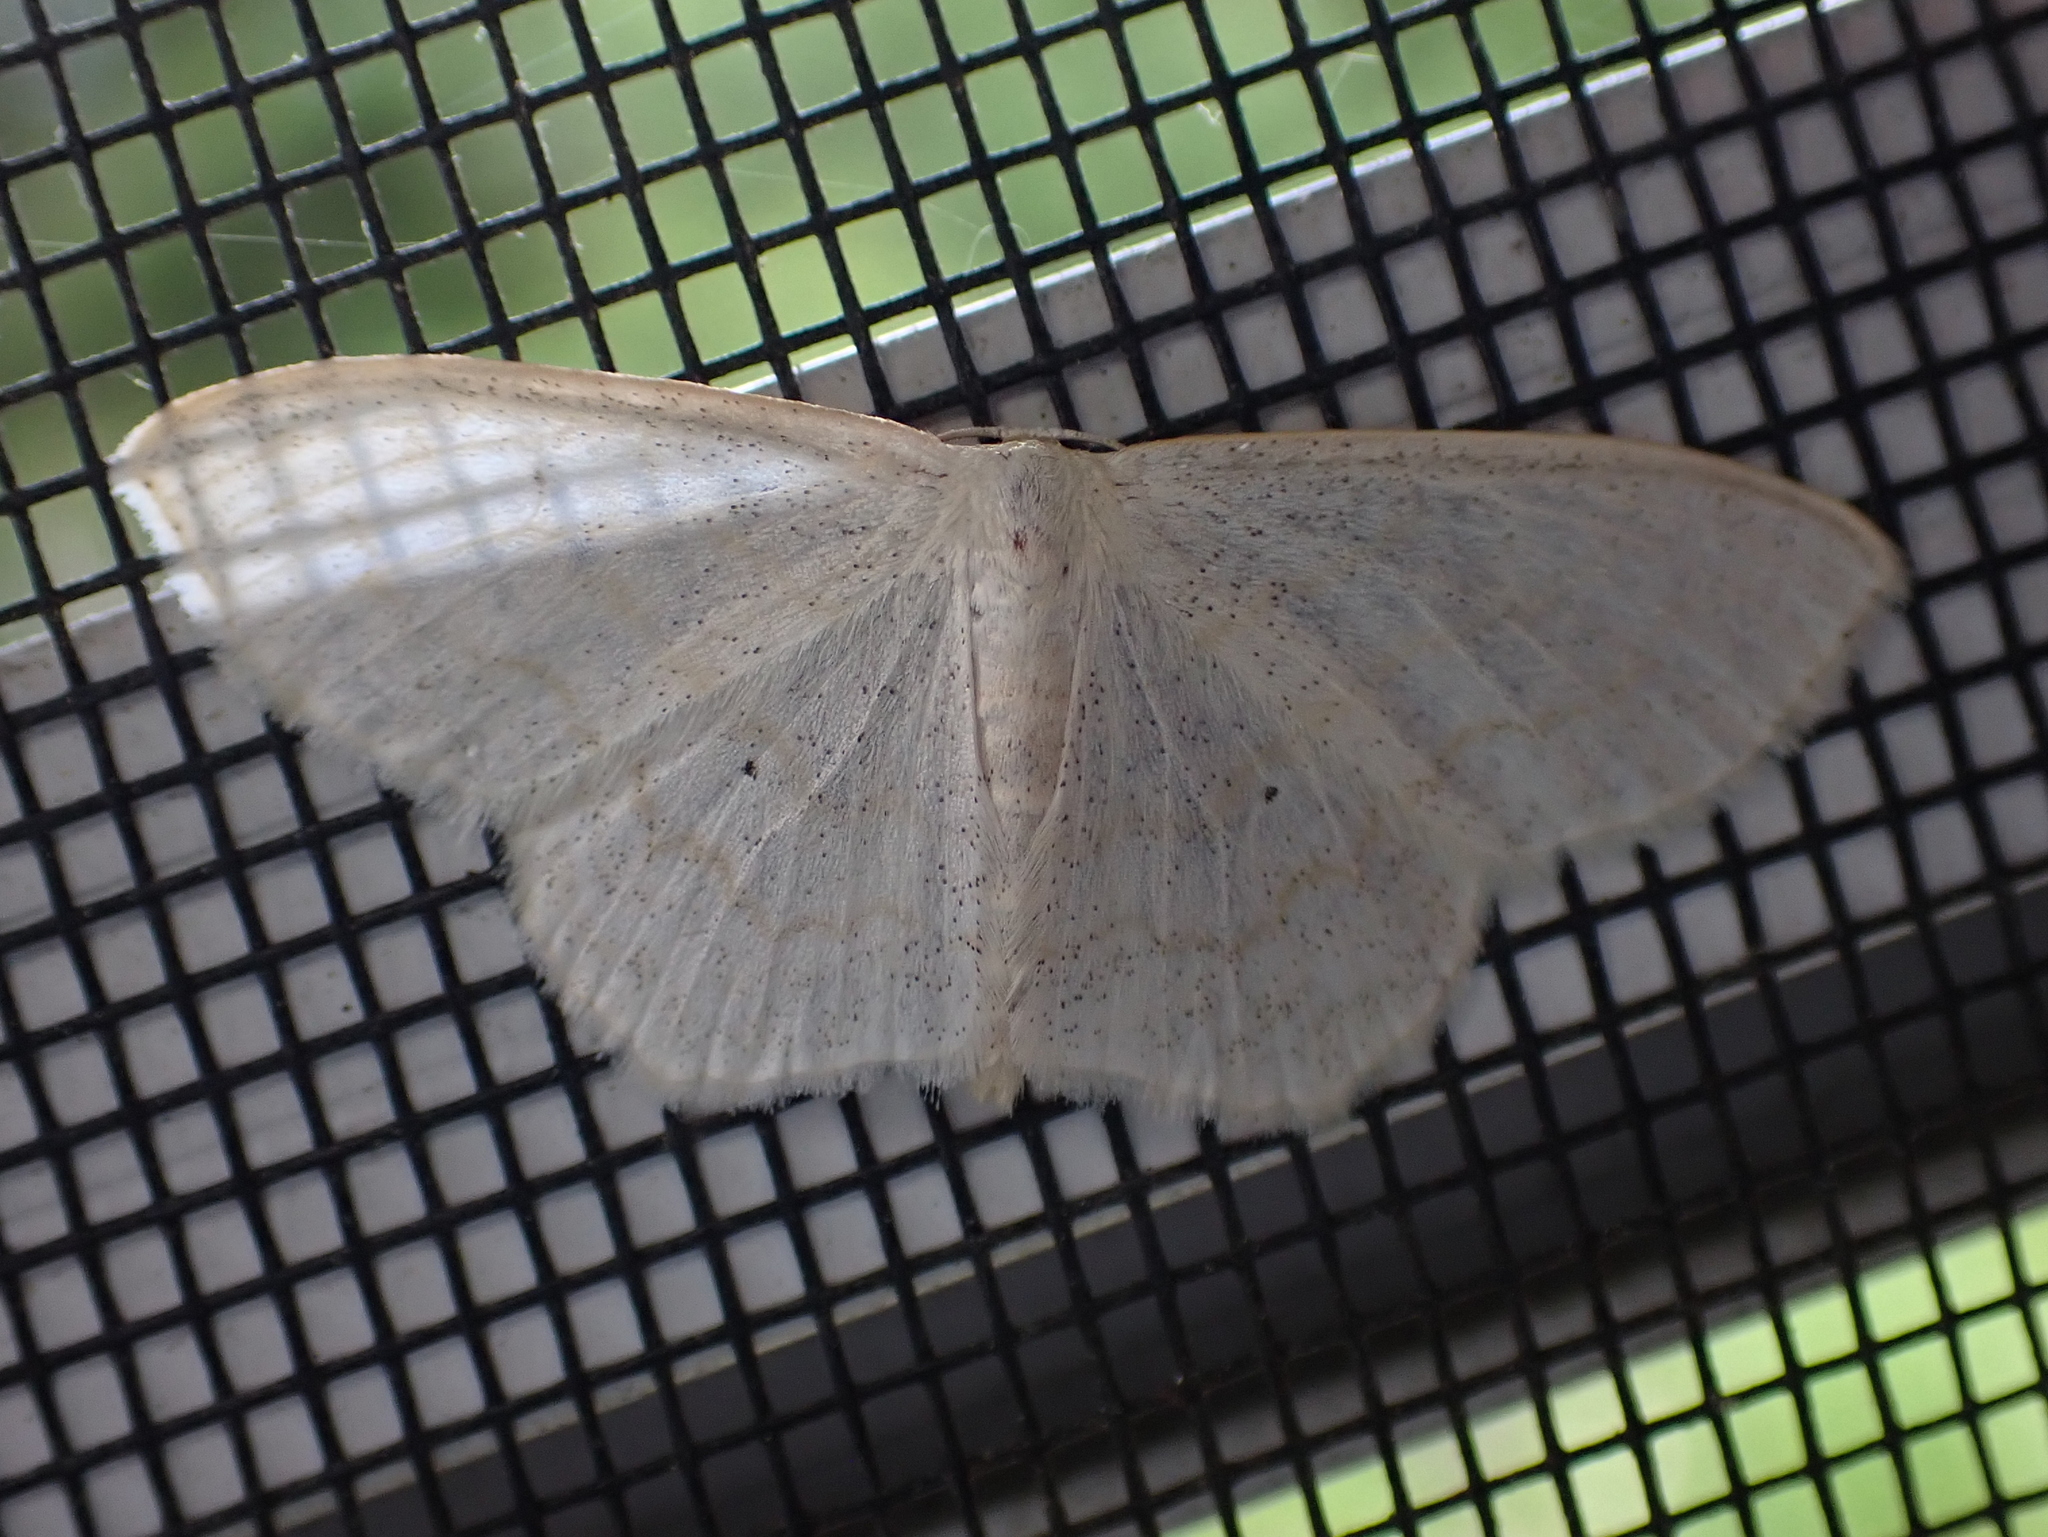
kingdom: Animalia
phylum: Arthropoda
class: Insecta
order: Lepidoptera
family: Geometridae
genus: Scopula
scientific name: Scopula limboundata
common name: Large lace border
